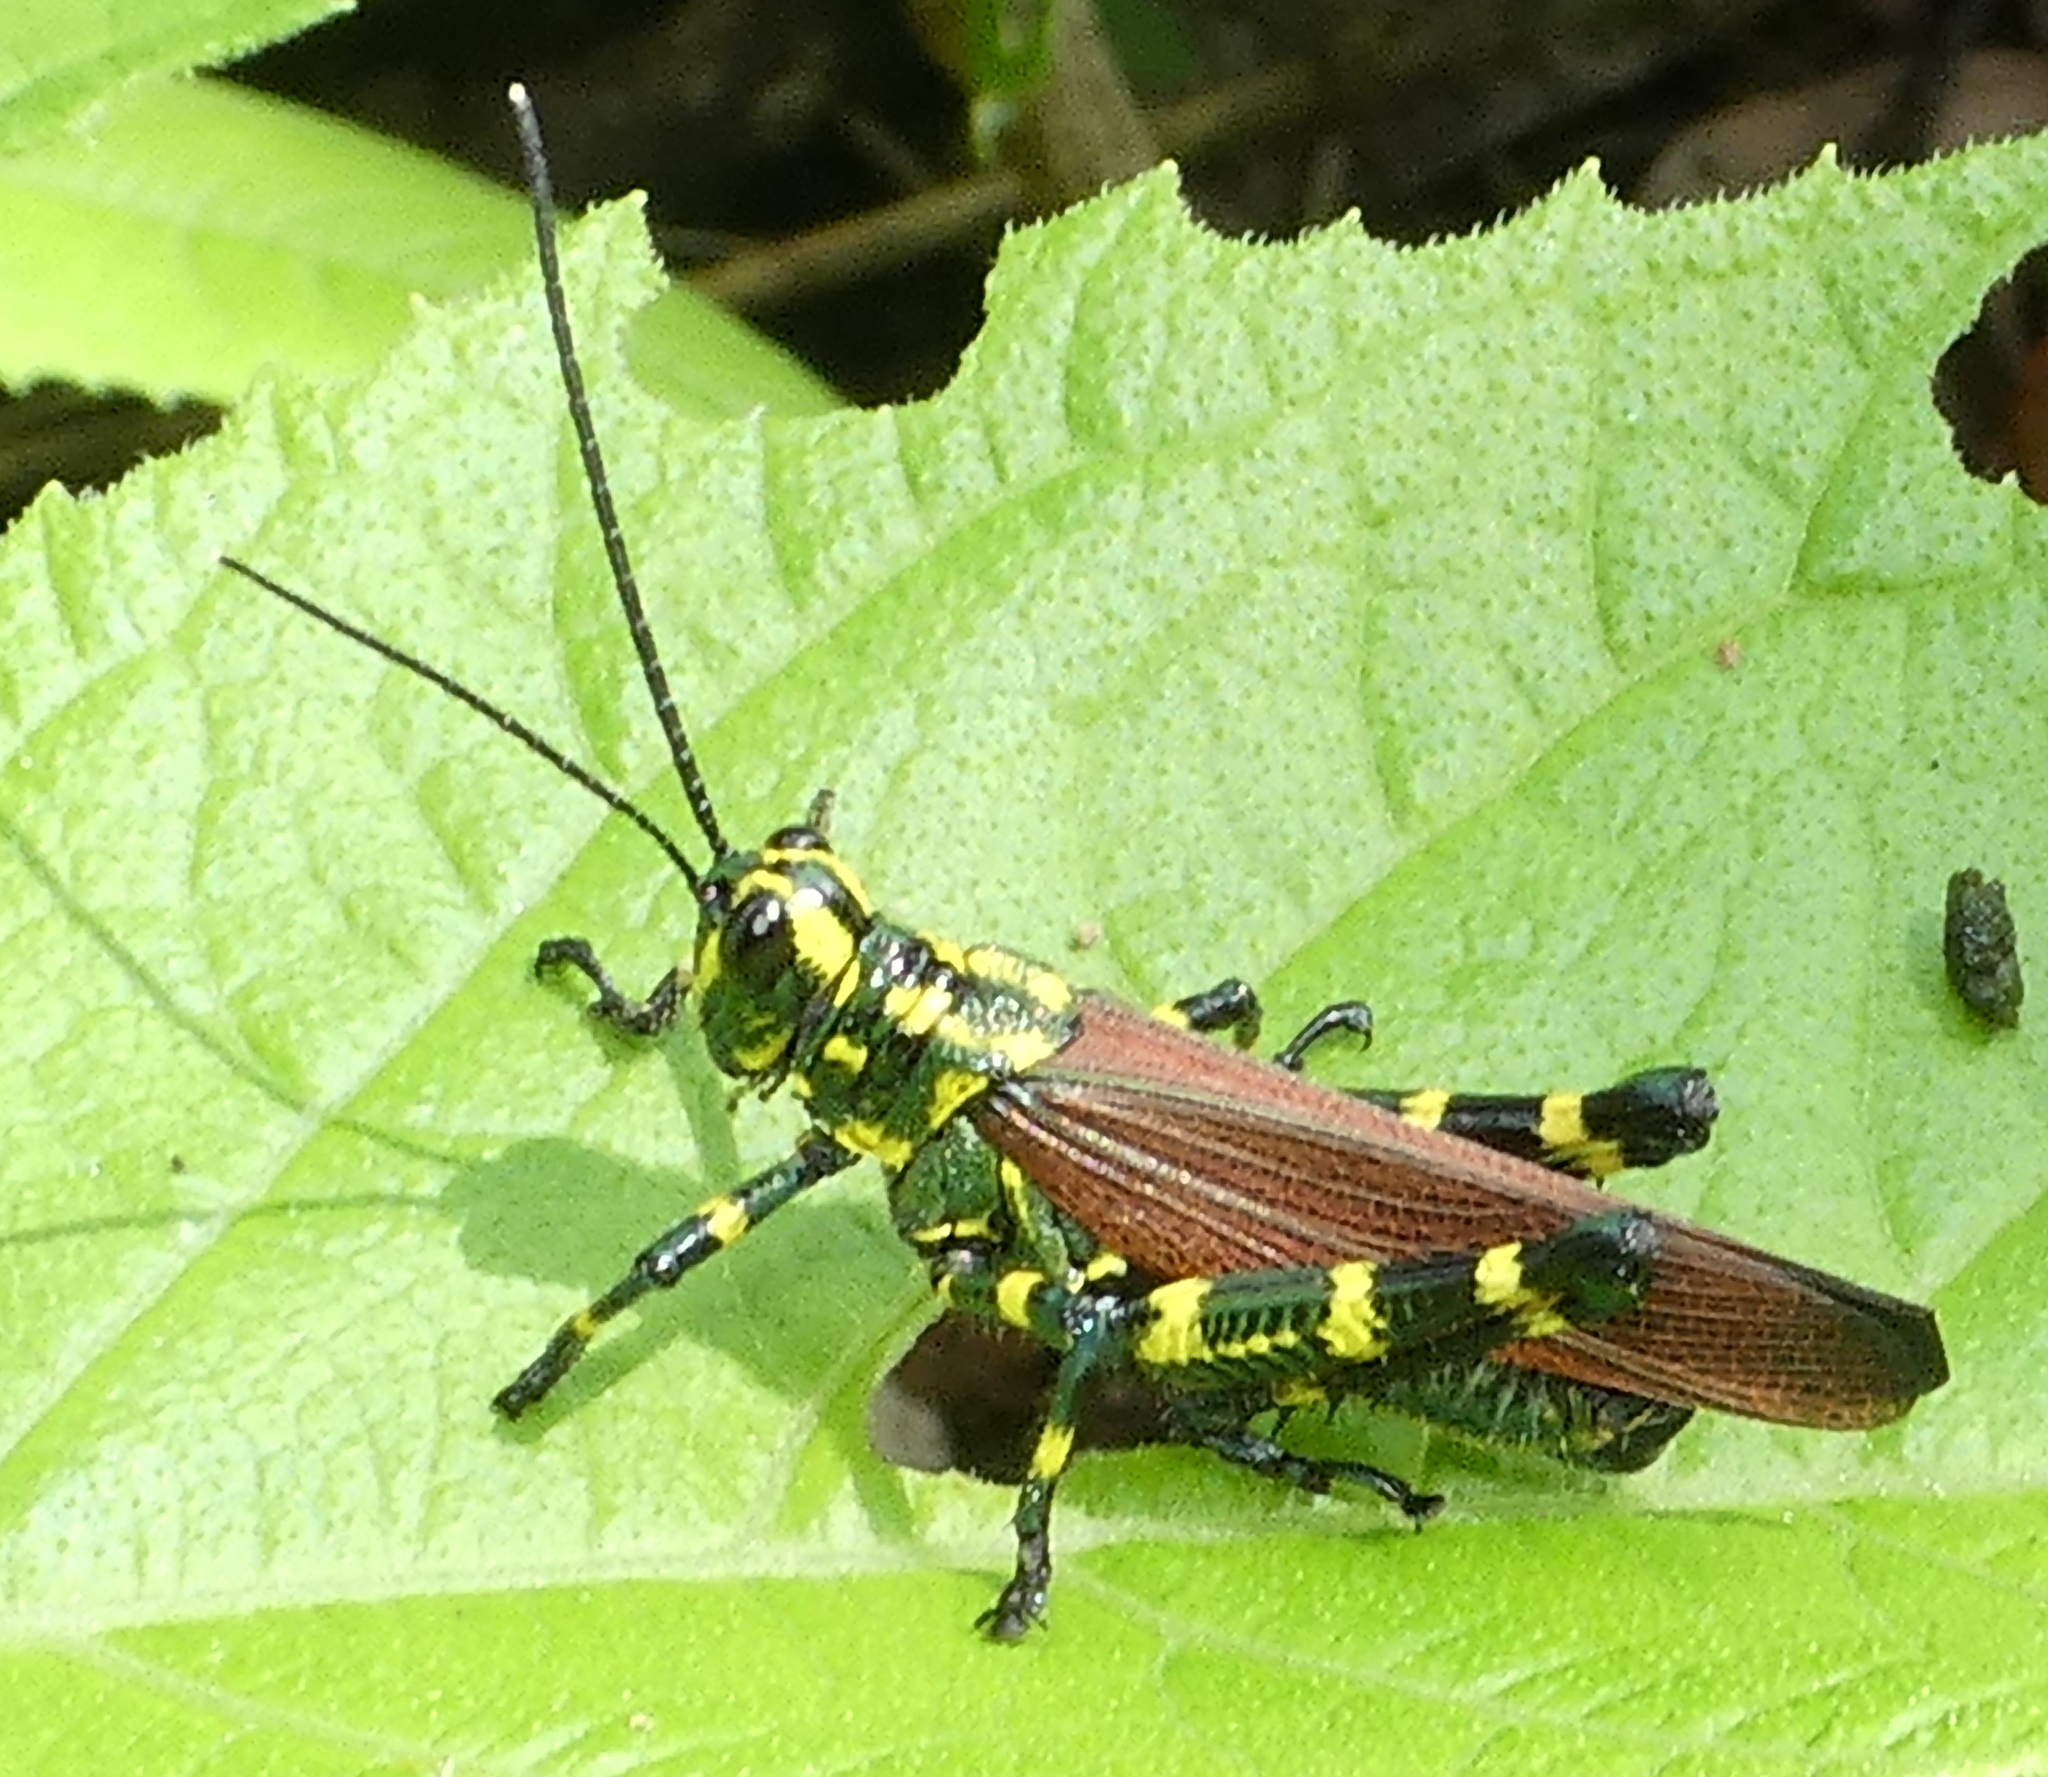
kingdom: Animalia
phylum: Arthropoda
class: Insecta
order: Orthoptera
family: Romaleidae
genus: Chromacris
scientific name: Chromacris speciosa
